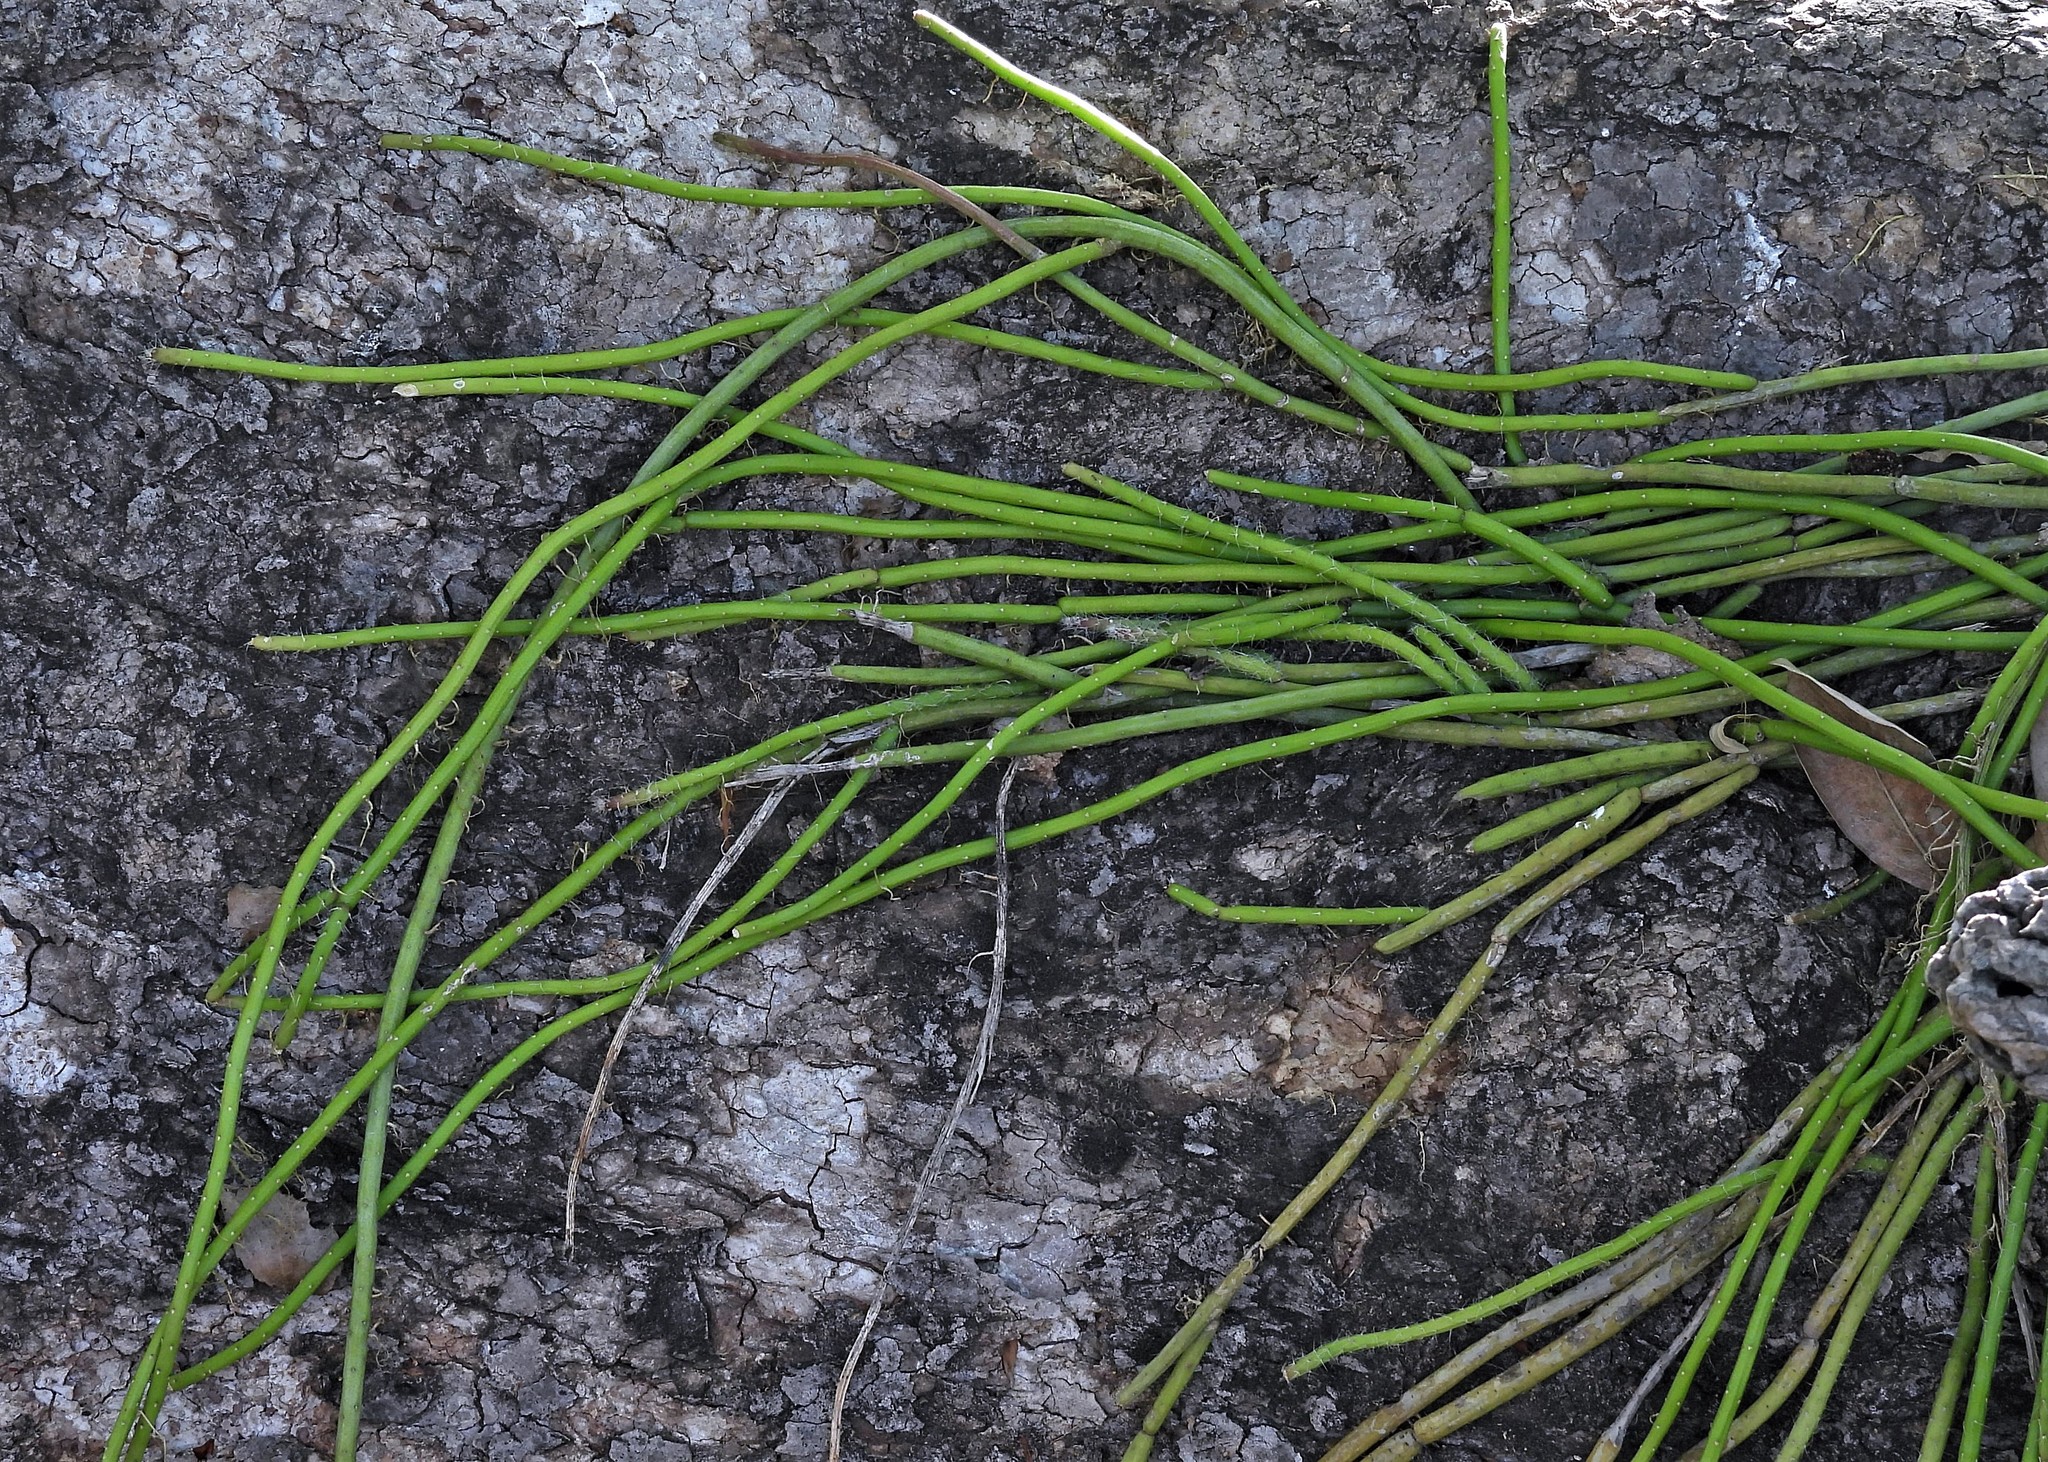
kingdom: Plantae
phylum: Tracheophyta
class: Magnoliopsida
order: Caryophyllales
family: Cactaceae
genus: Rhipsalis
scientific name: Rhipsalis baccifera
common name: Mistletoe cactus
